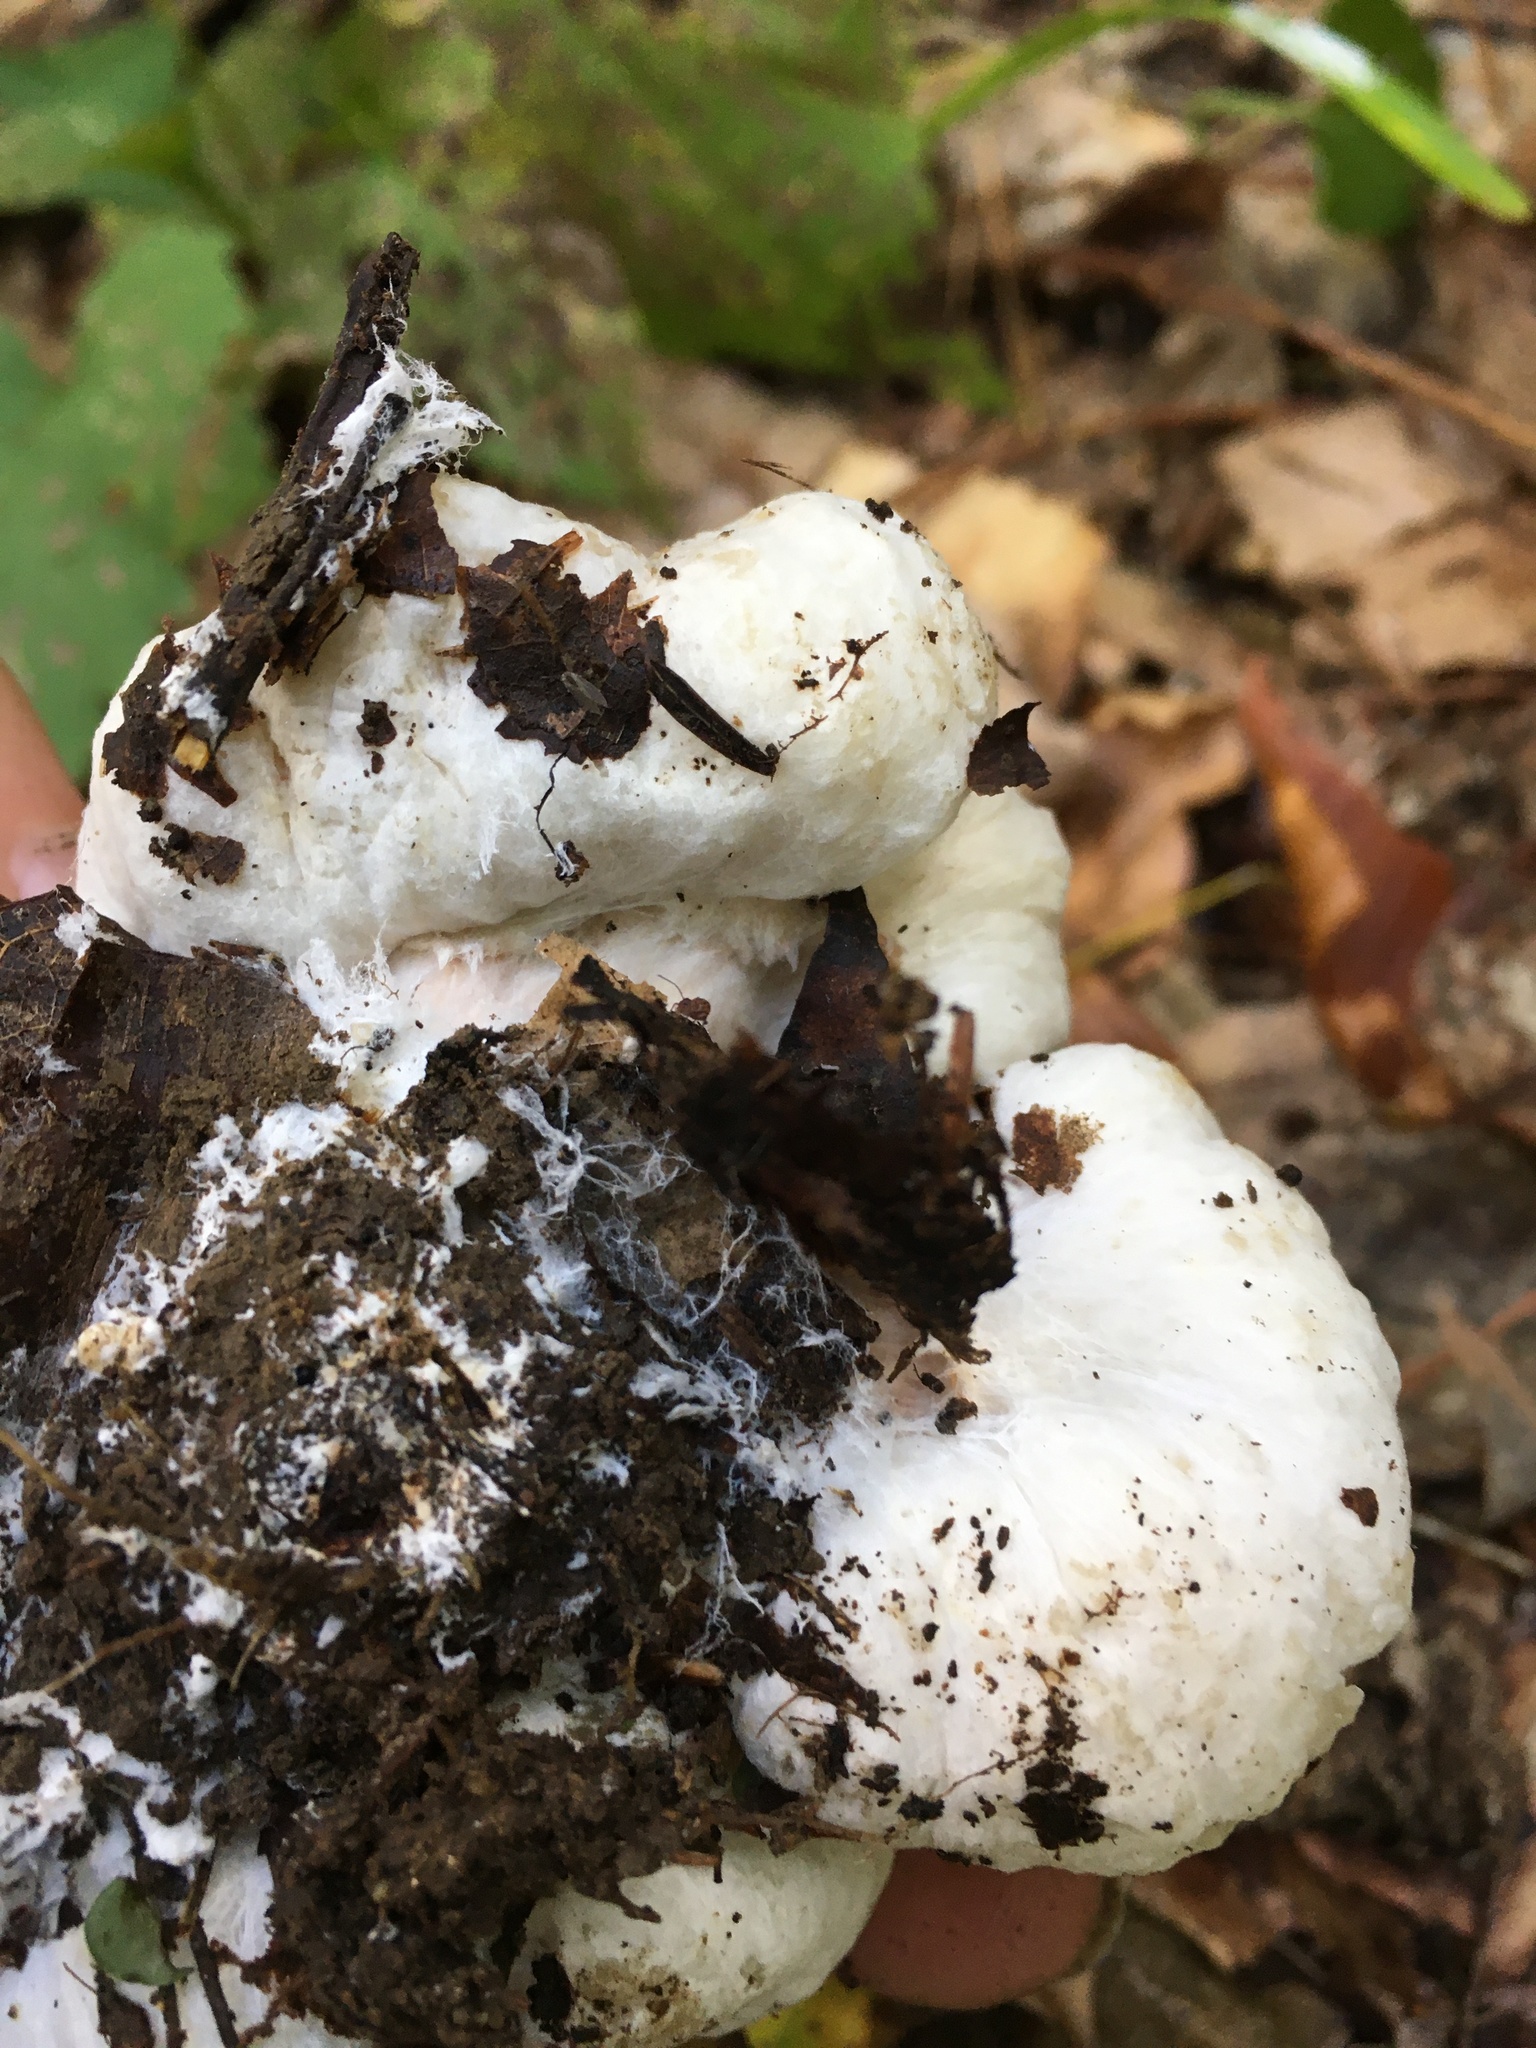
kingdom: Fungi
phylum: Basidiomycota
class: Agaricomycetes
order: Agaricales
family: Entolomataceae
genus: Entoloma
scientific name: Entoloma abortivum
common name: Aborted entoloma
